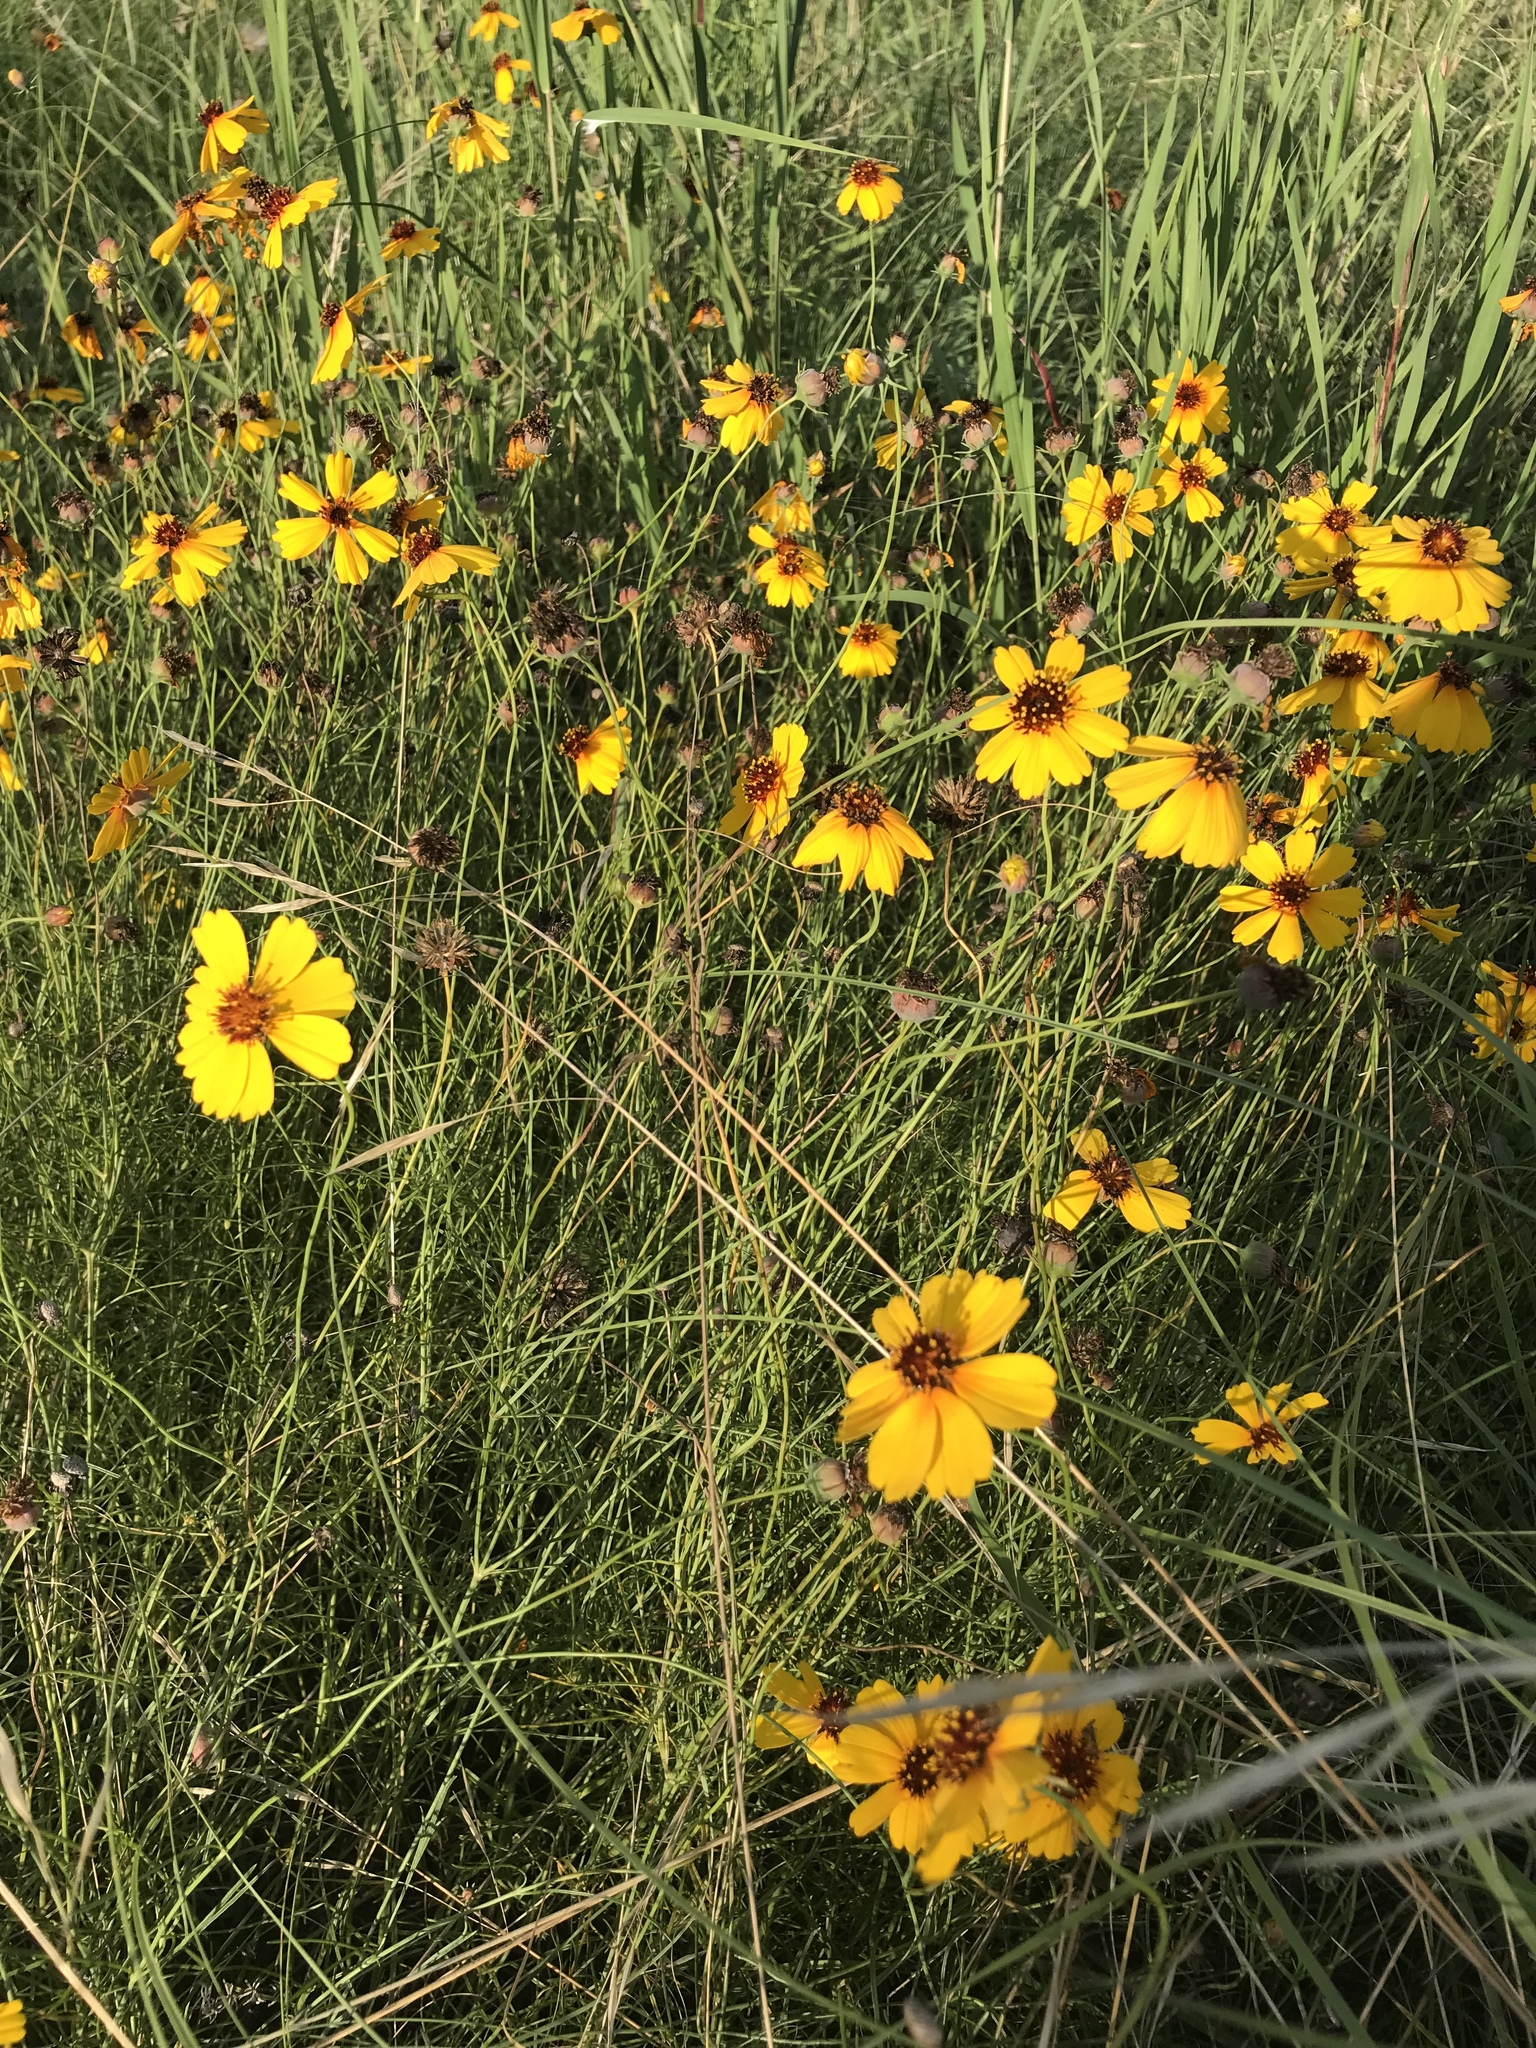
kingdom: Plantae
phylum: Tracheophyta
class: Magnoliopsida
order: Asterales
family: Asteraceae
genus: Thelesperma
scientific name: Thelesperma filifolium
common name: Stiff greenthread
